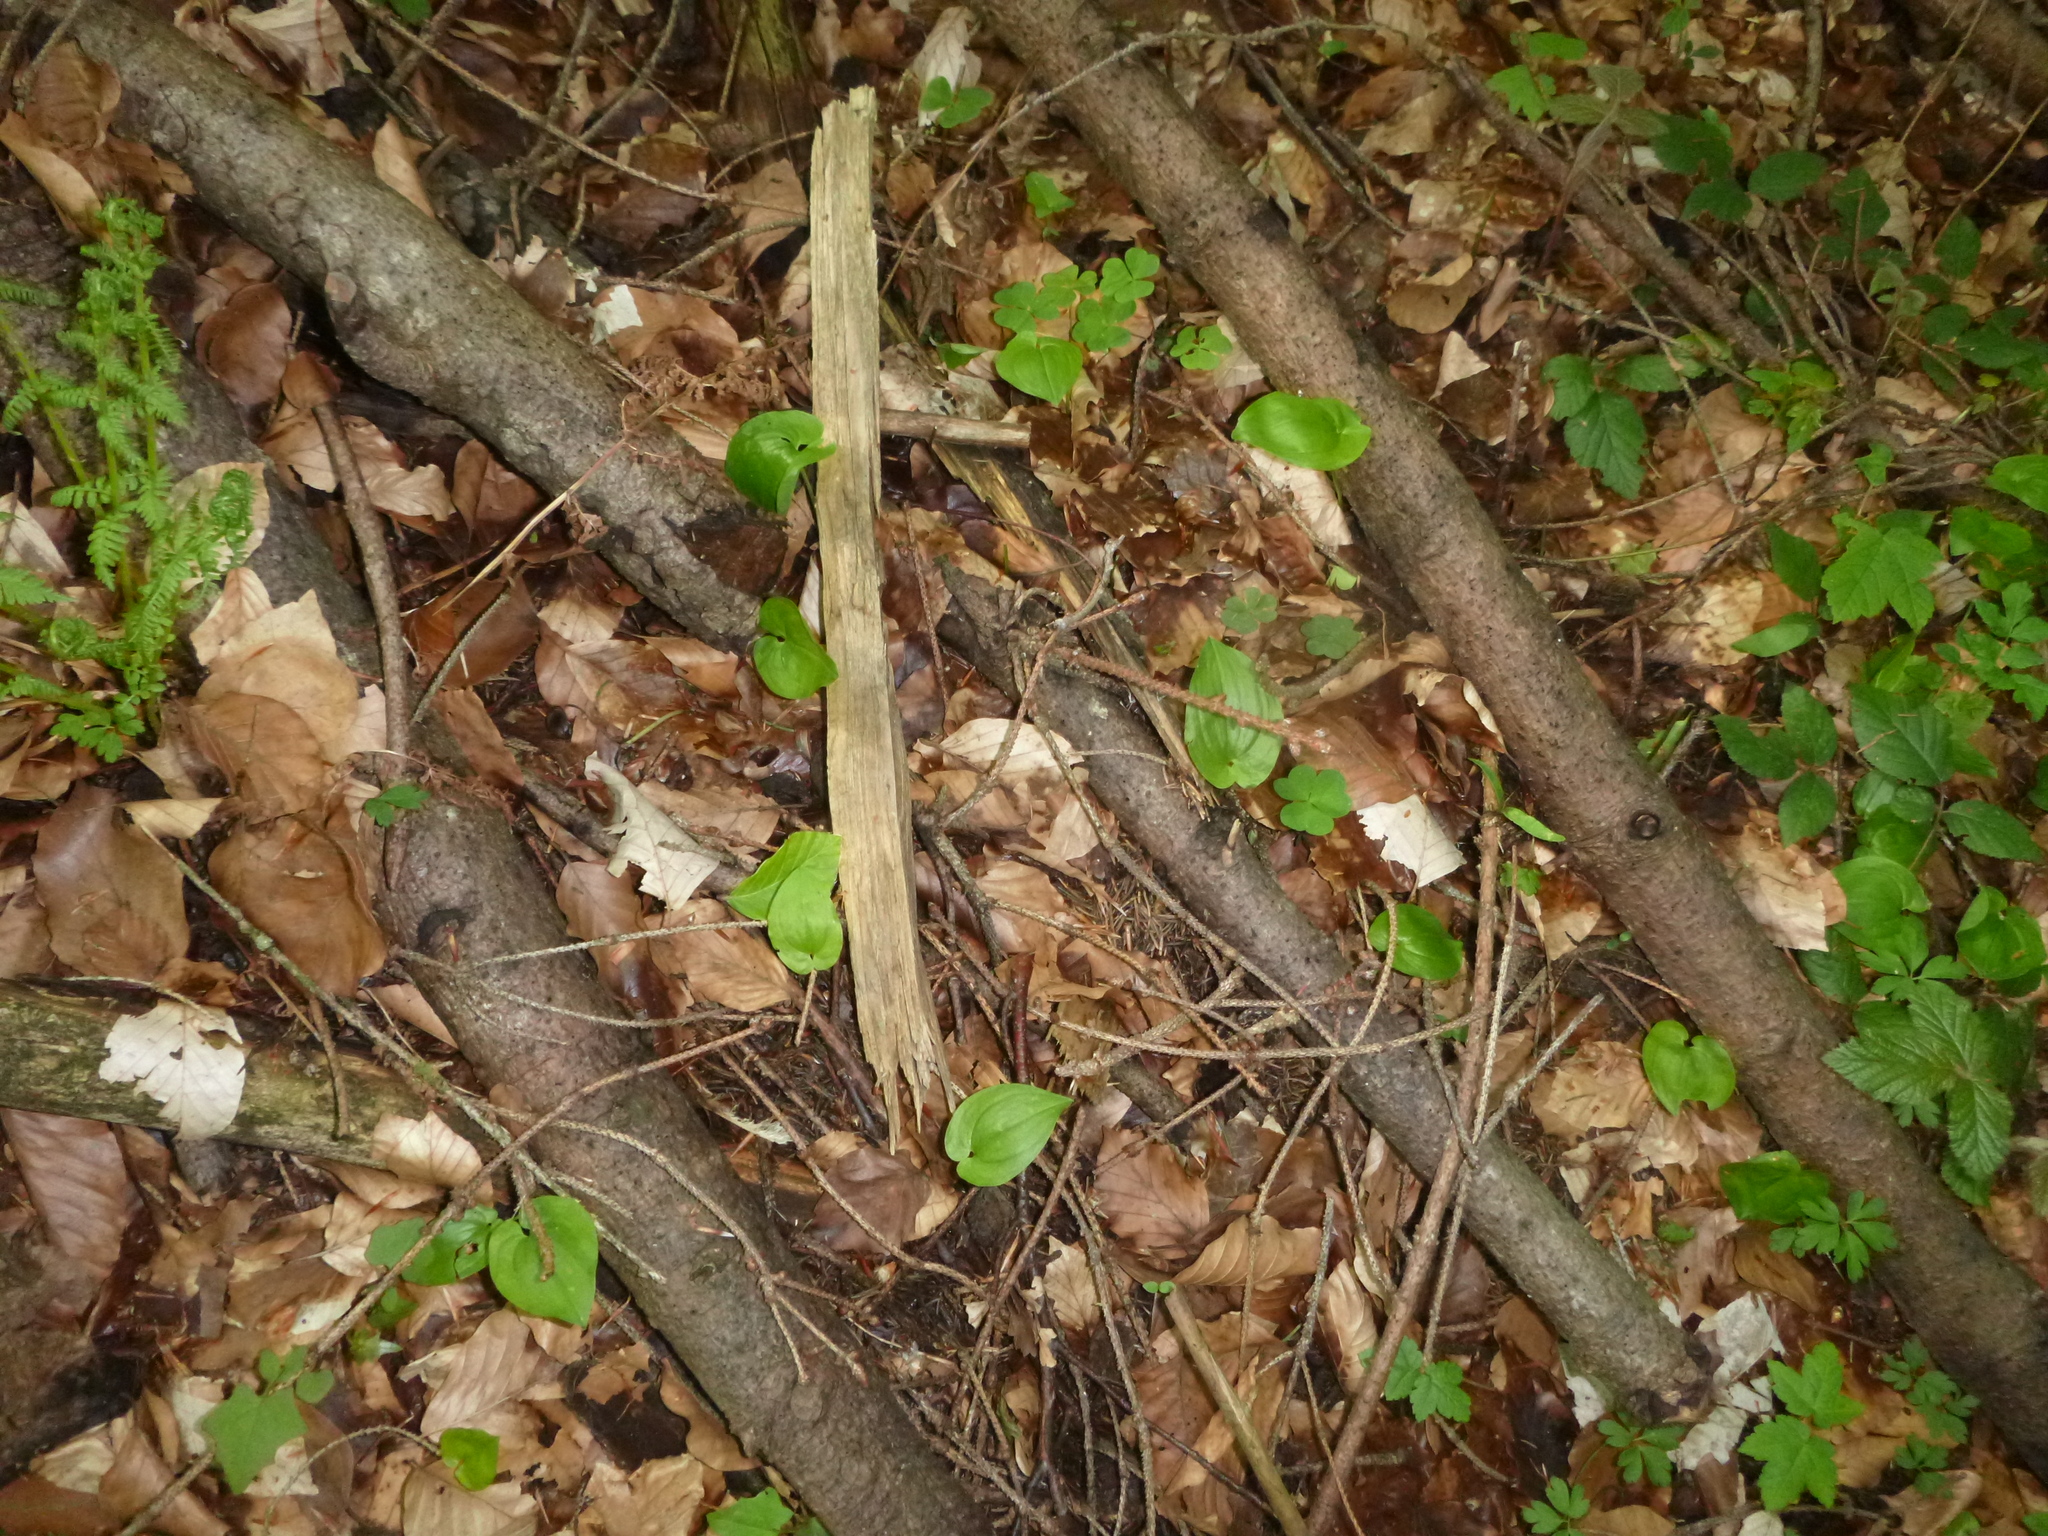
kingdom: Plantae
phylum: Tracheophyta
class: Liliopsida
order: Asparagales
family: Asparagaceae
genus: Maianthemum
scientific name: Maianthemum bifolium
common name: May lily
